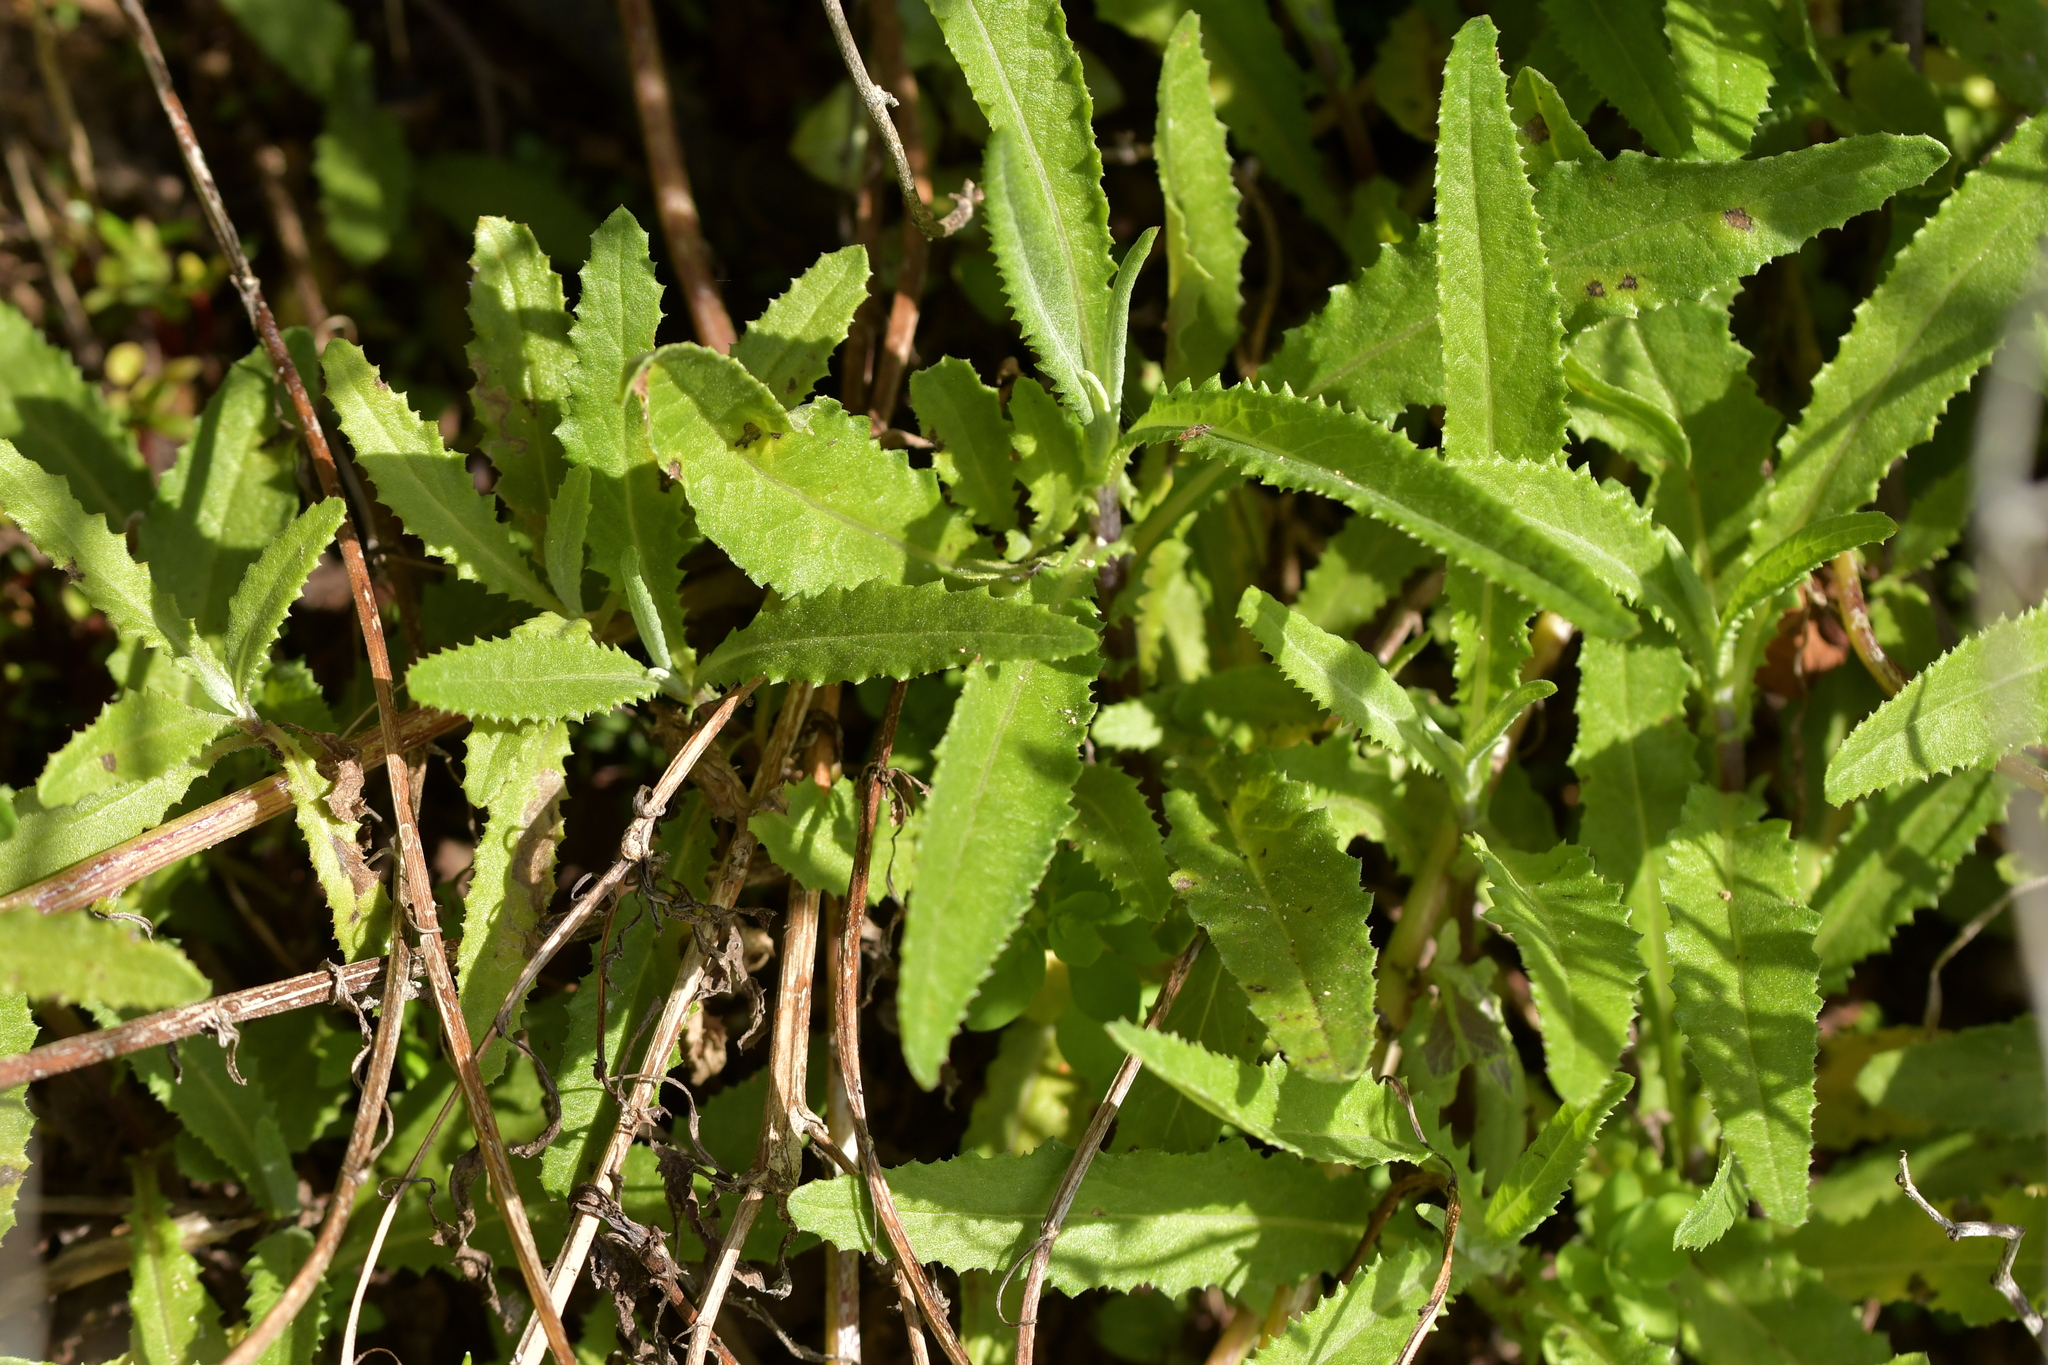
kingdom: Plantae
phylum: Tracheophyta
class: Magnoliopsida
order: Asterales
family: Asteraceae
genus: Senecio
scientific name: Senecio minimus
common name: Toothed fireweed
